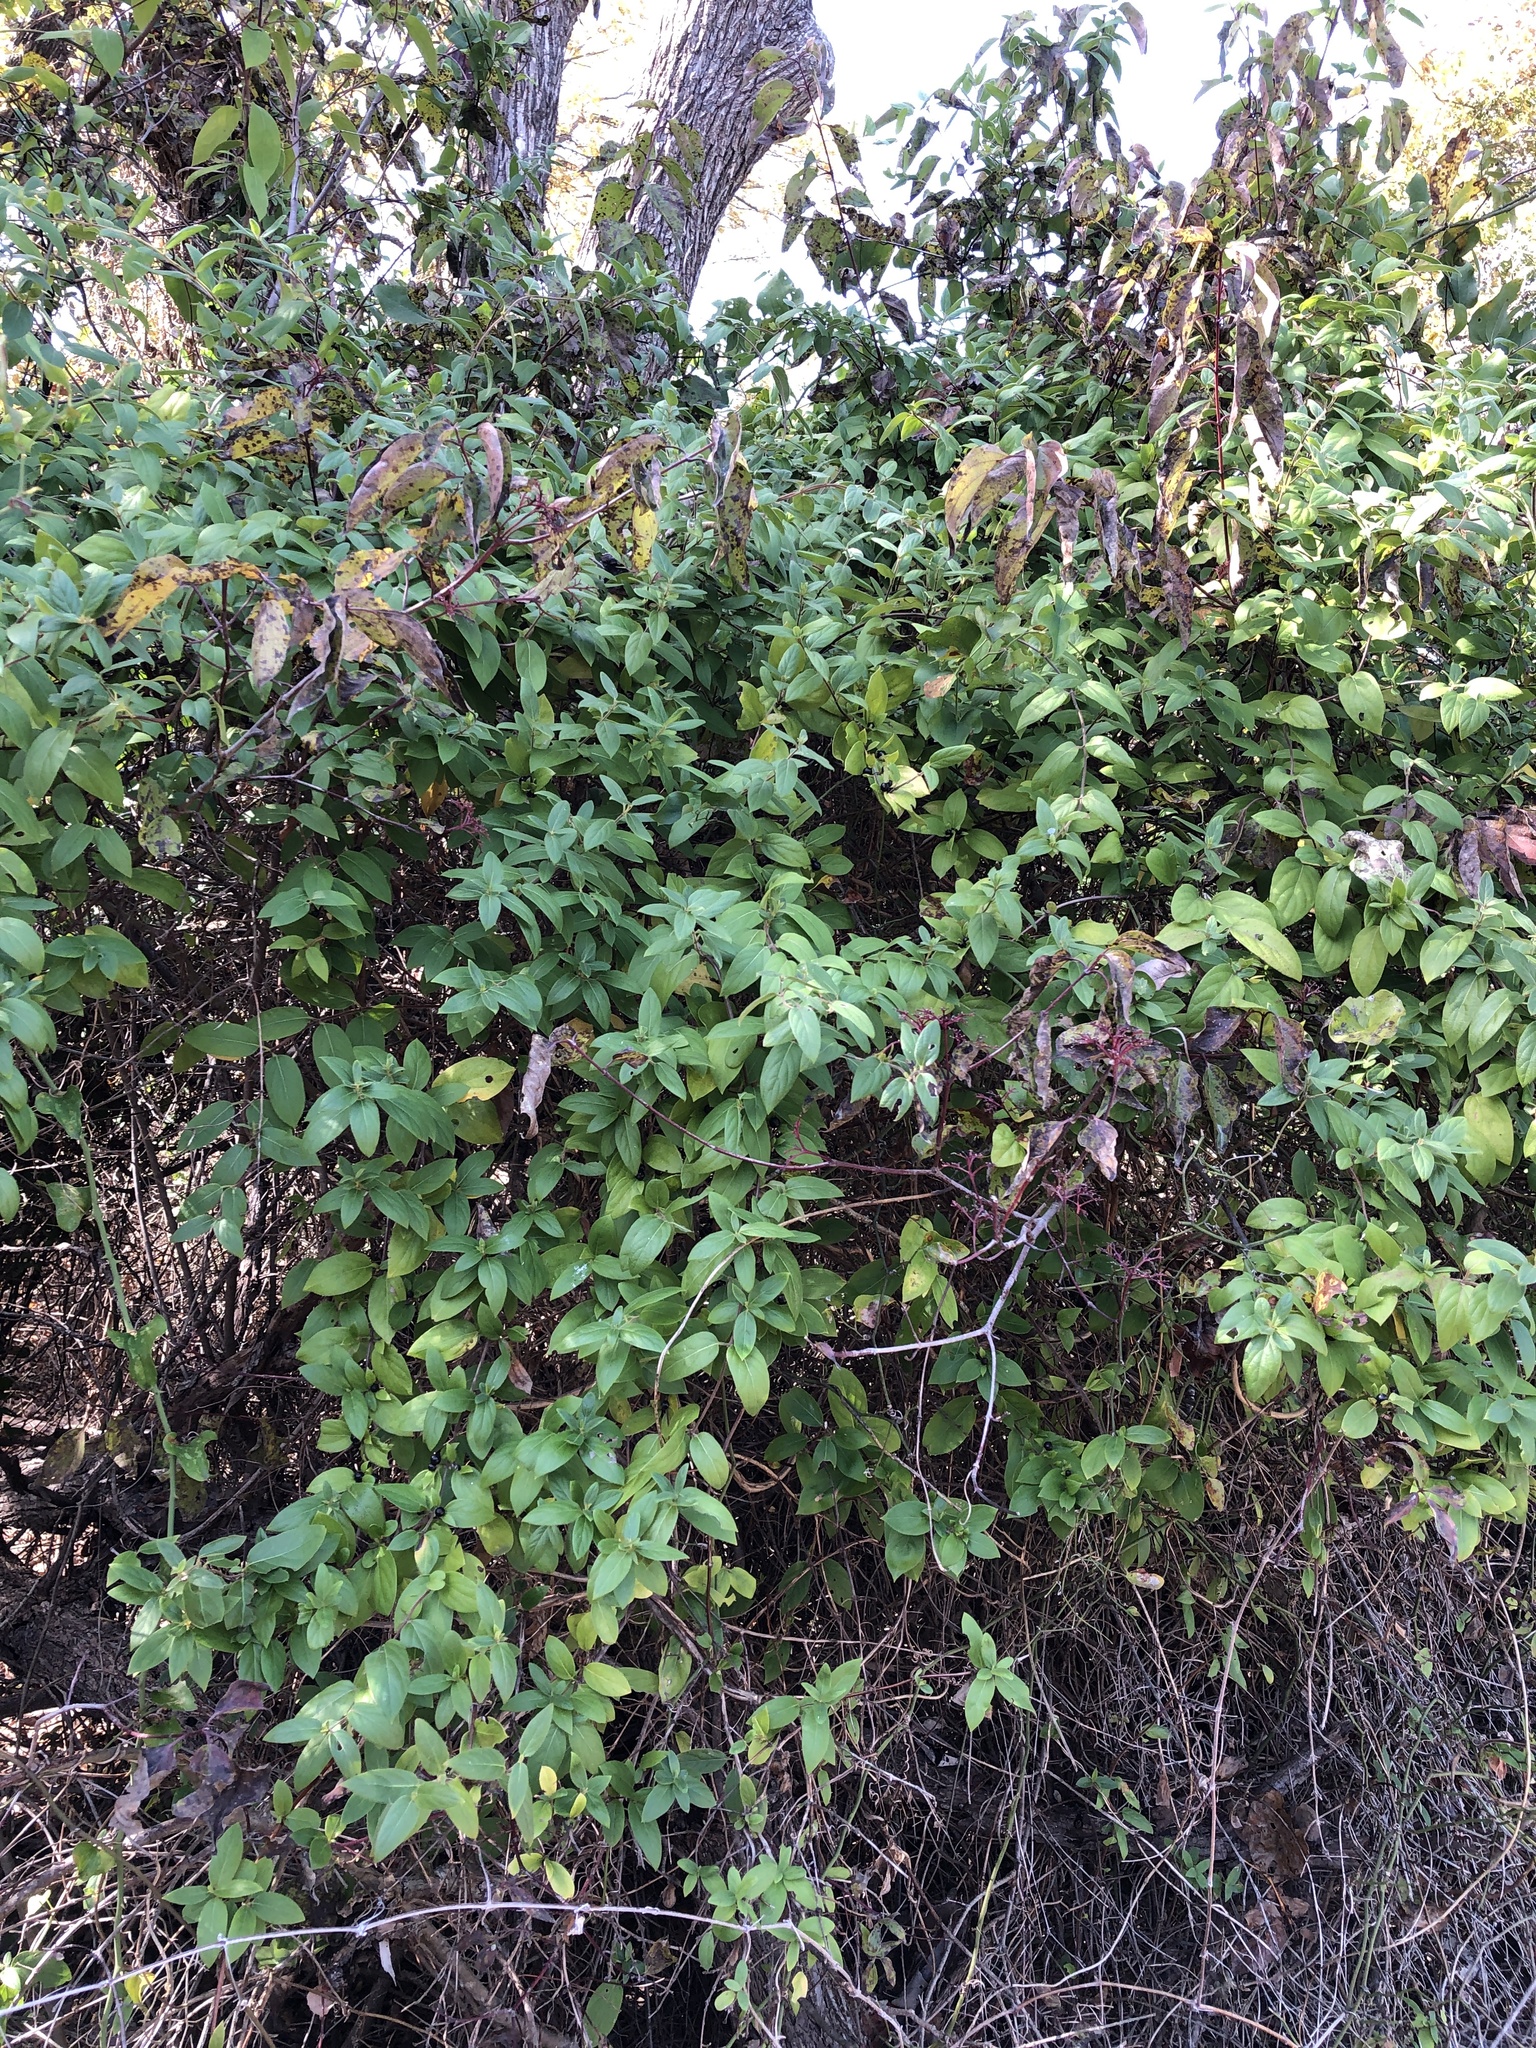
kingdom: Plantae
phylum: Tracheophyta
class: Magnoliopsida
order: Dipsacales
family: Caprifoliaceae
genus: Lonicera
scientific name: Lonicera japonica
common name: Japanese honeysuckle
